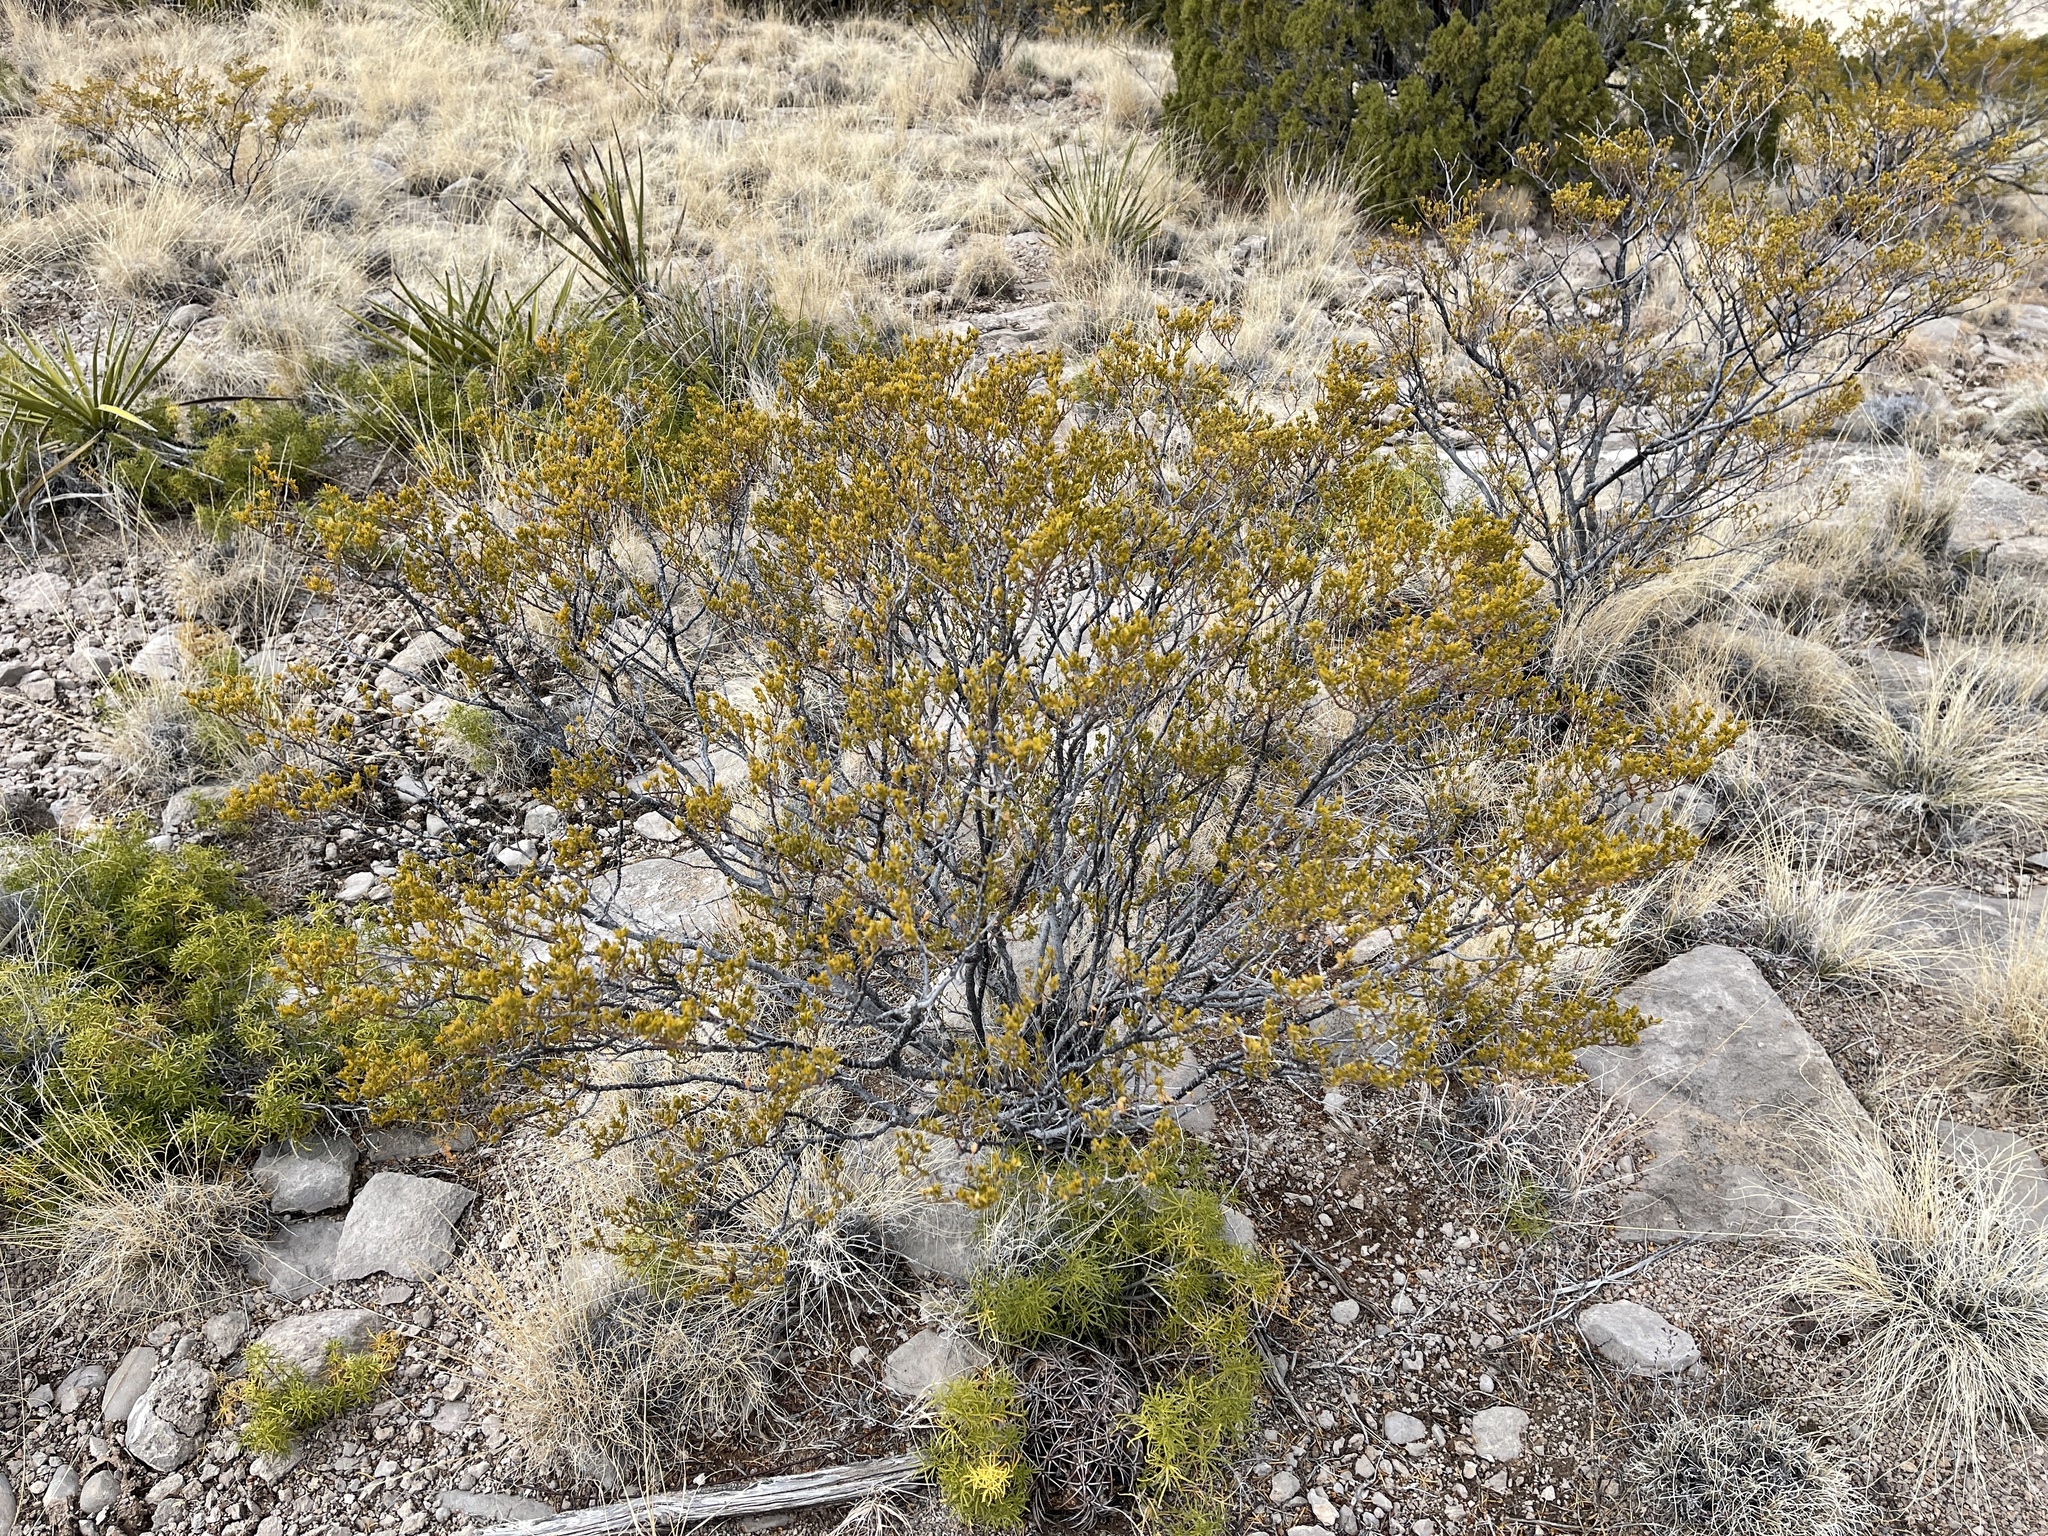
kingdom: Plantae
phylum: Tracheophyta
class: Magnoliopsida
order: Zygophyllales
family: Zygophyllaceae
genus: Larrea
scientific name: Larrea tridentata
